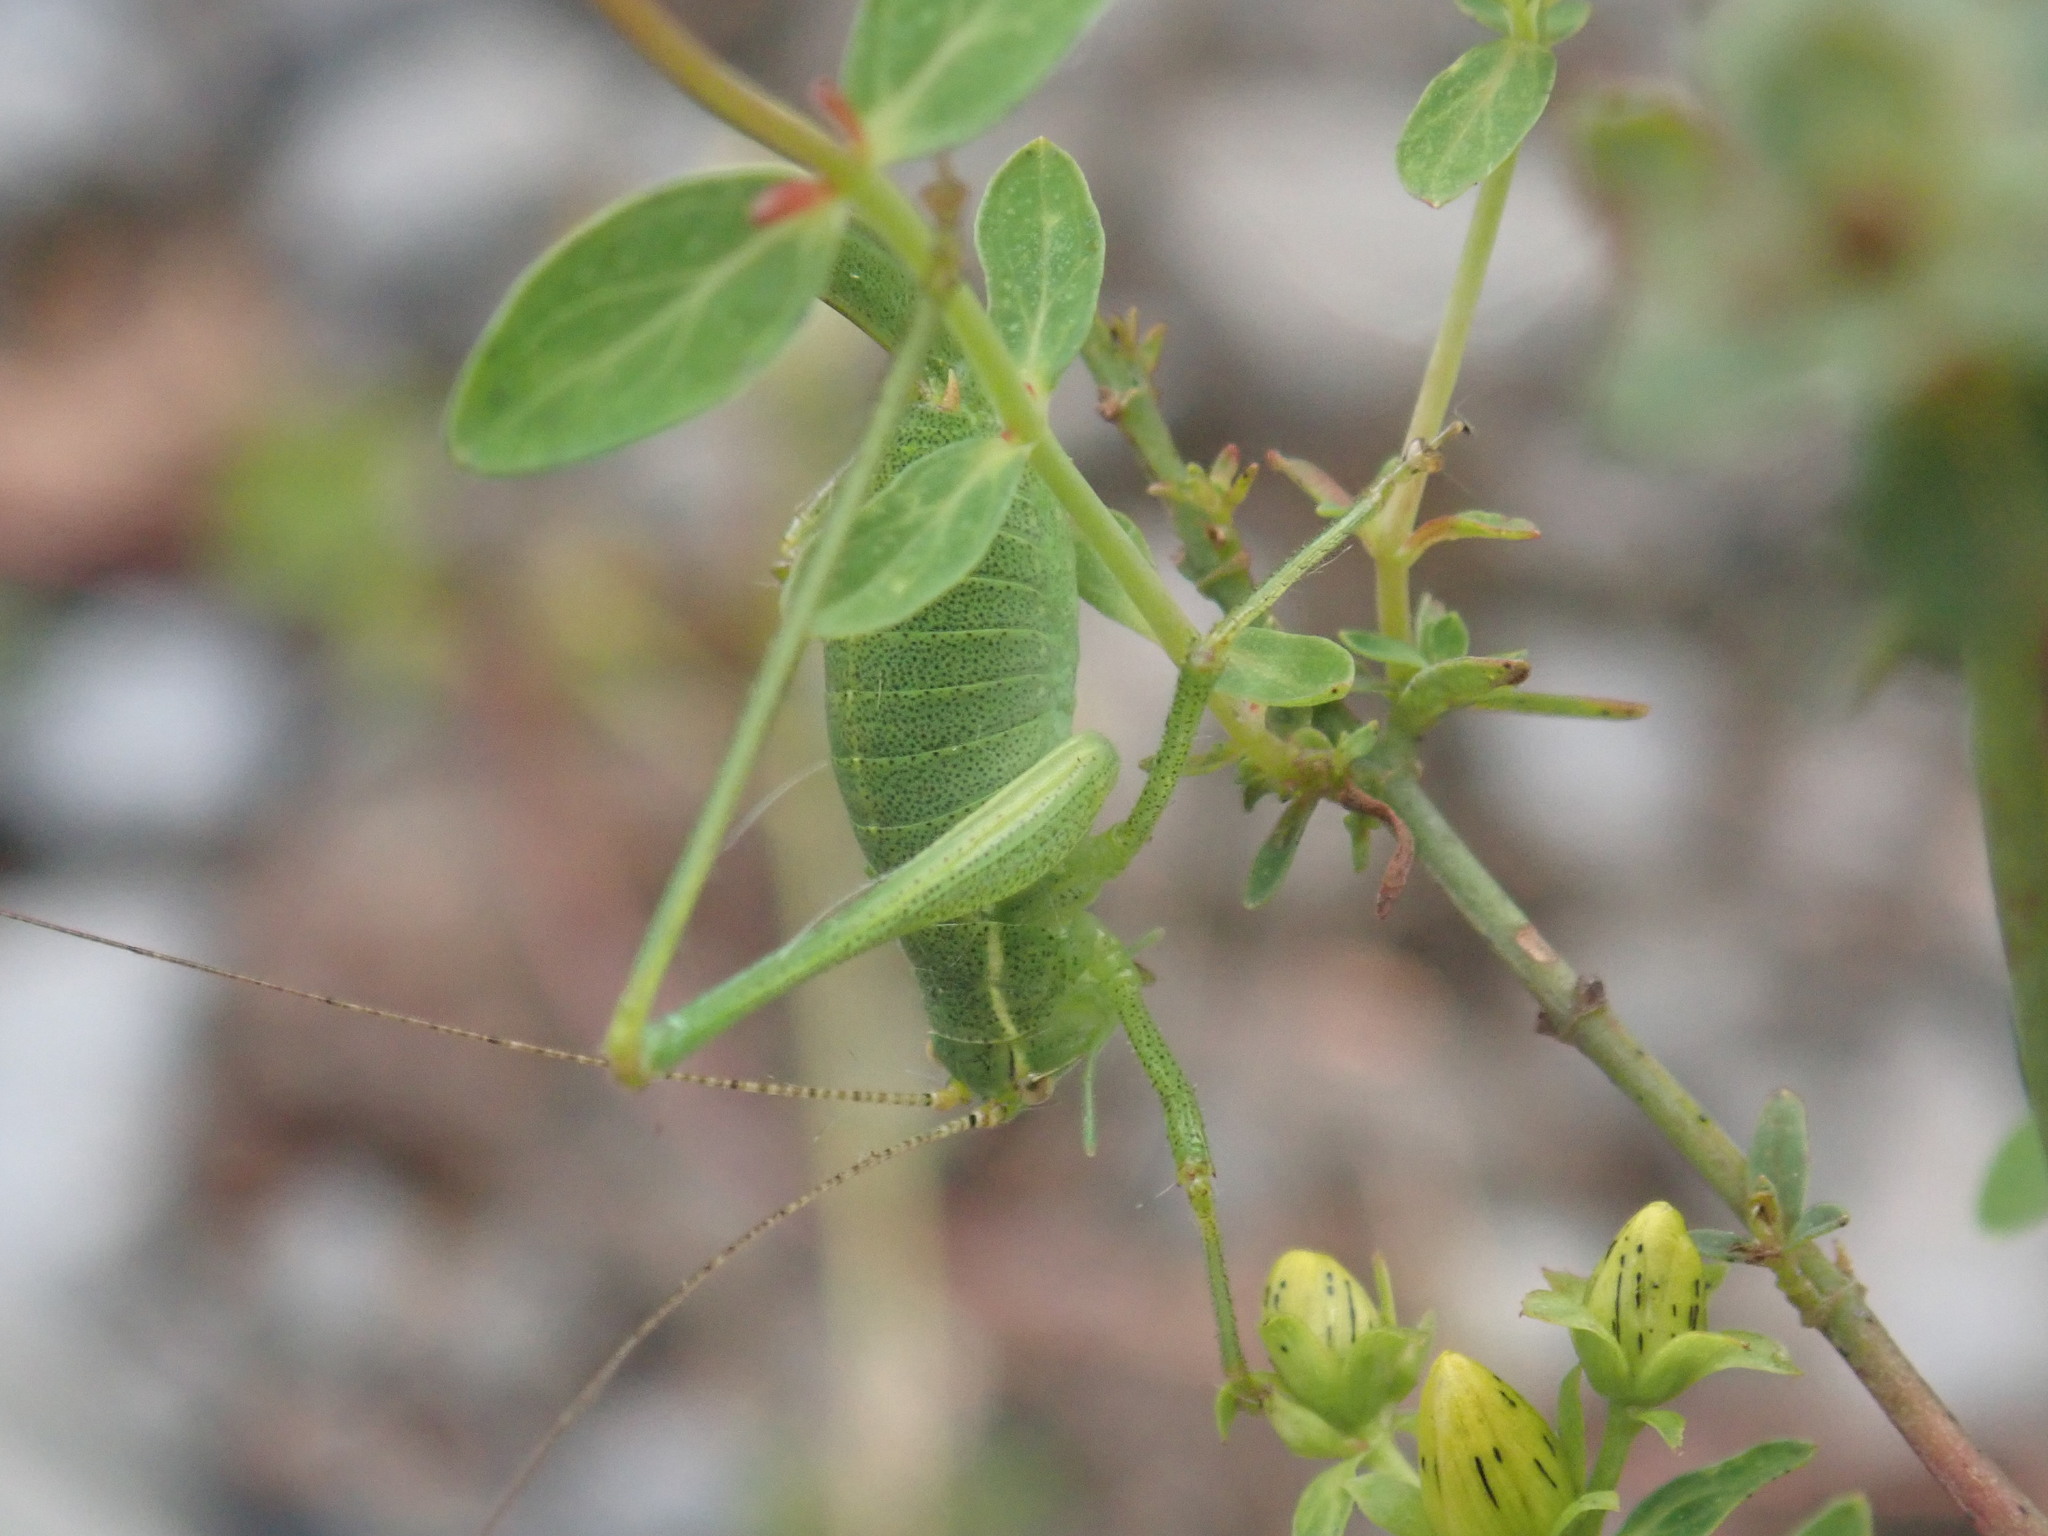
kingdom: Animalia
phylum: Arthropoda
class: Insecta
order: Orthoptera
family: Tettigoniidae
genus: Leptophyes
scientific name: Leptophyes punctatissima
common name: Speckled bush-cricket
